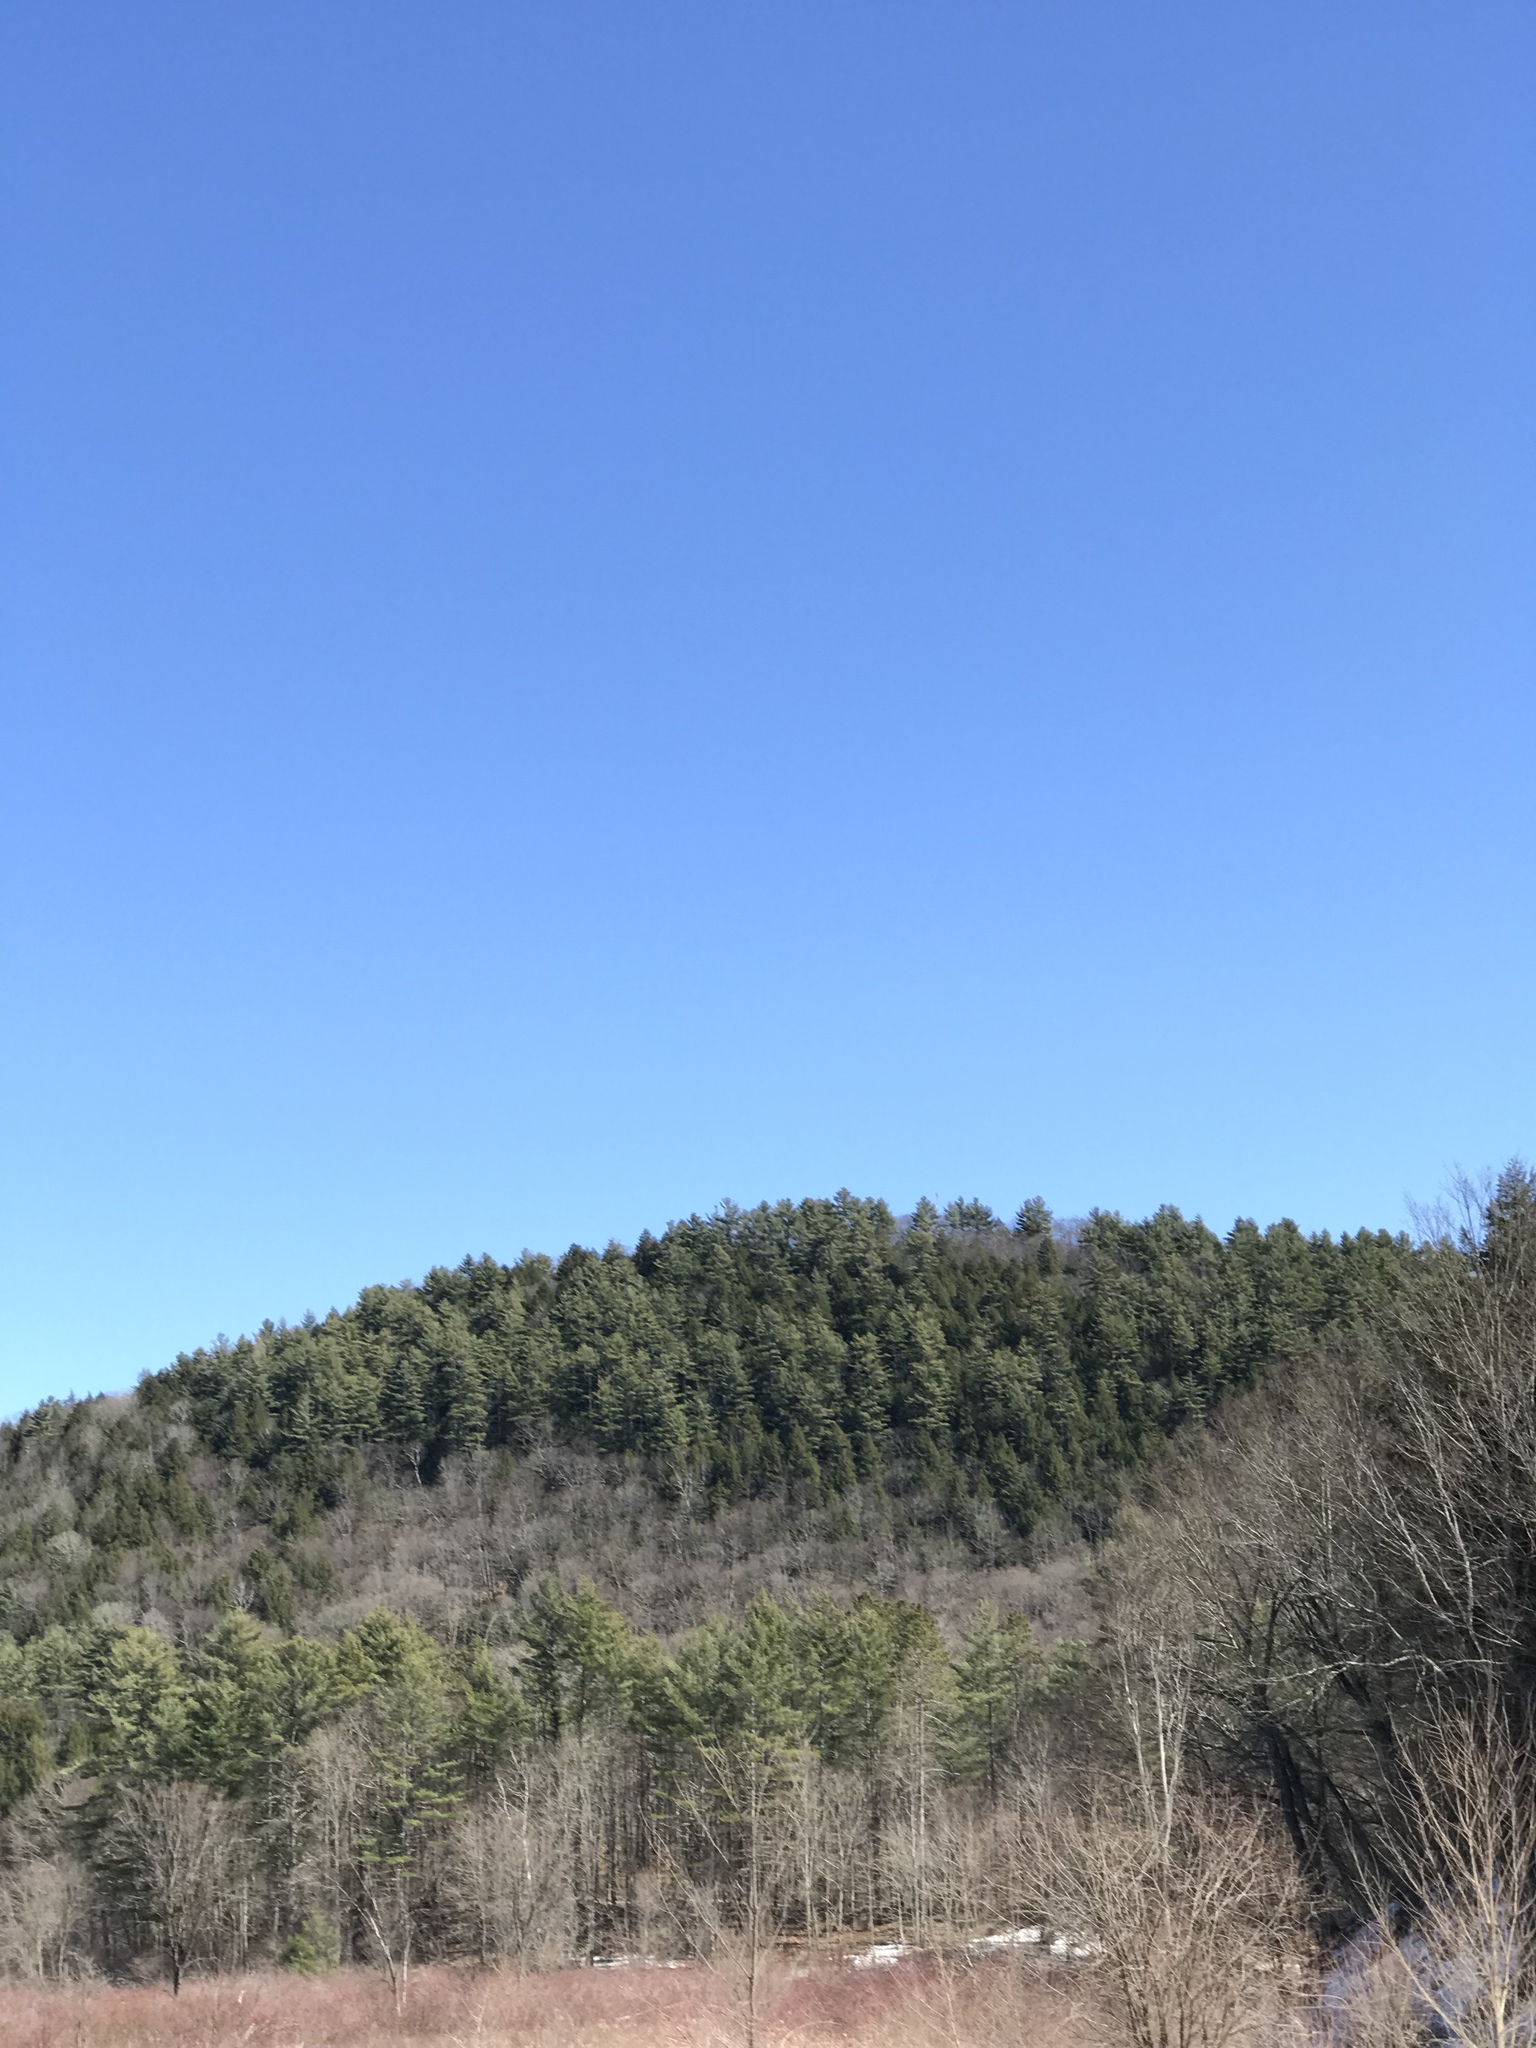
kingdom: Plantae
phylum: Tracheophyta
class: Pinopsida
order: Pinales
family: Pinaceae
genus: Pinus
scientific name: Pinus strobus
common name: Weymouth pine
